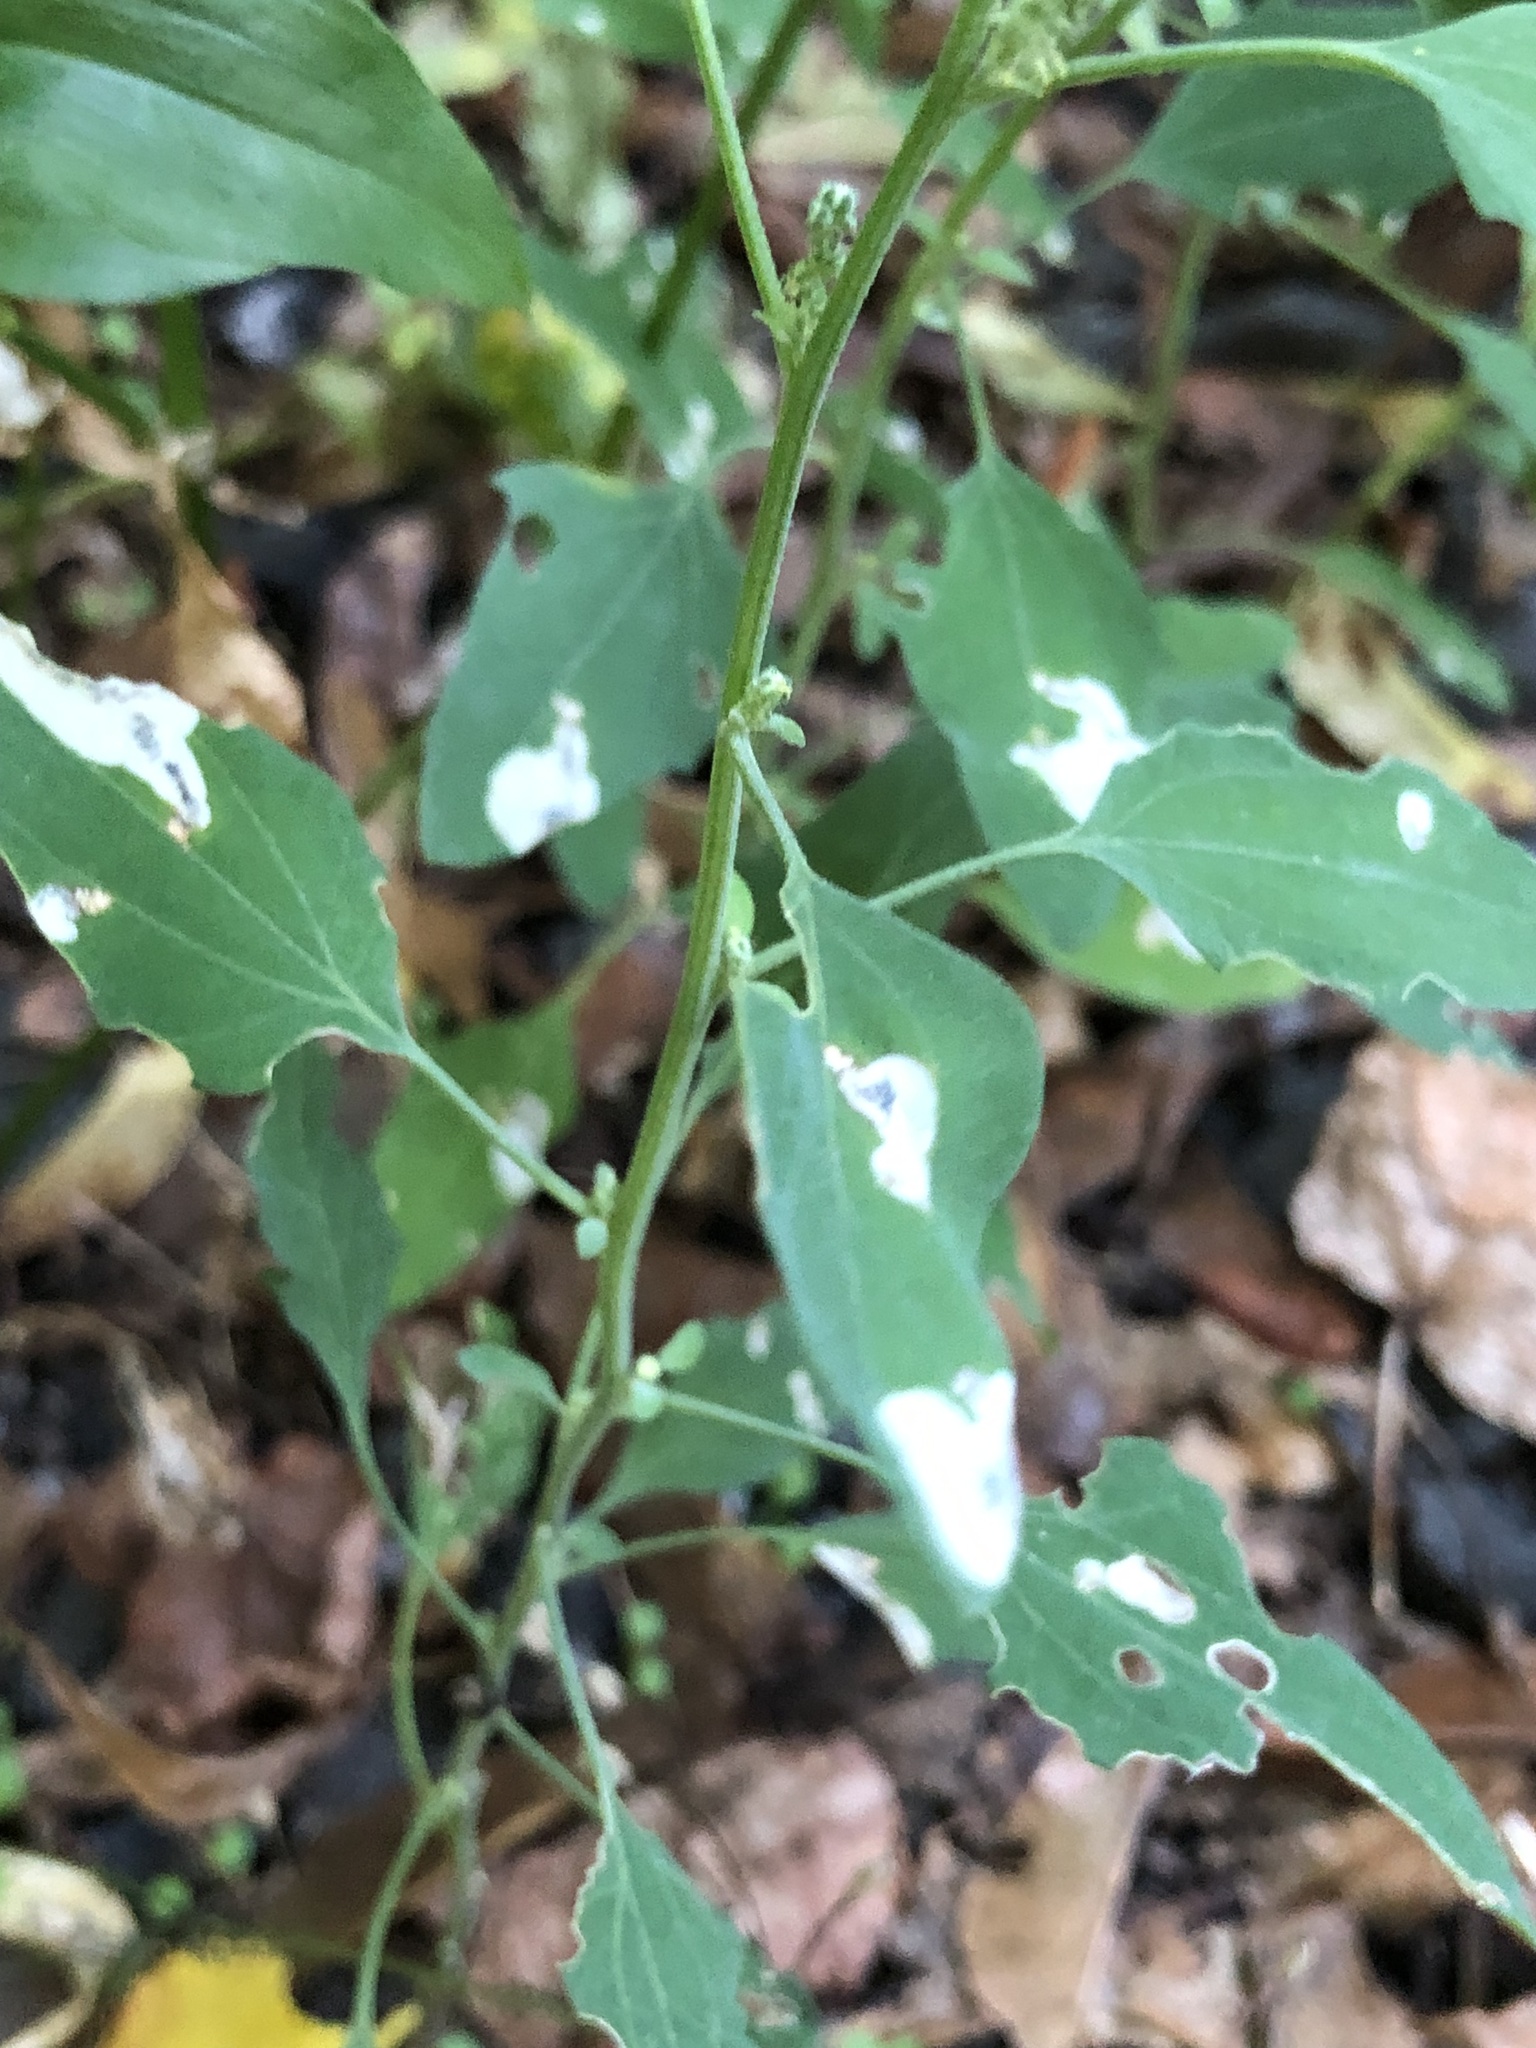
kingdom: Plantae
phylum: Tracheophyta
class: Magnoliopsida
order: Caryophyllales
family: Amaranthaceae
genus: Chenopodium
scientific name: Chenopodium album
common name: Fat-hen
